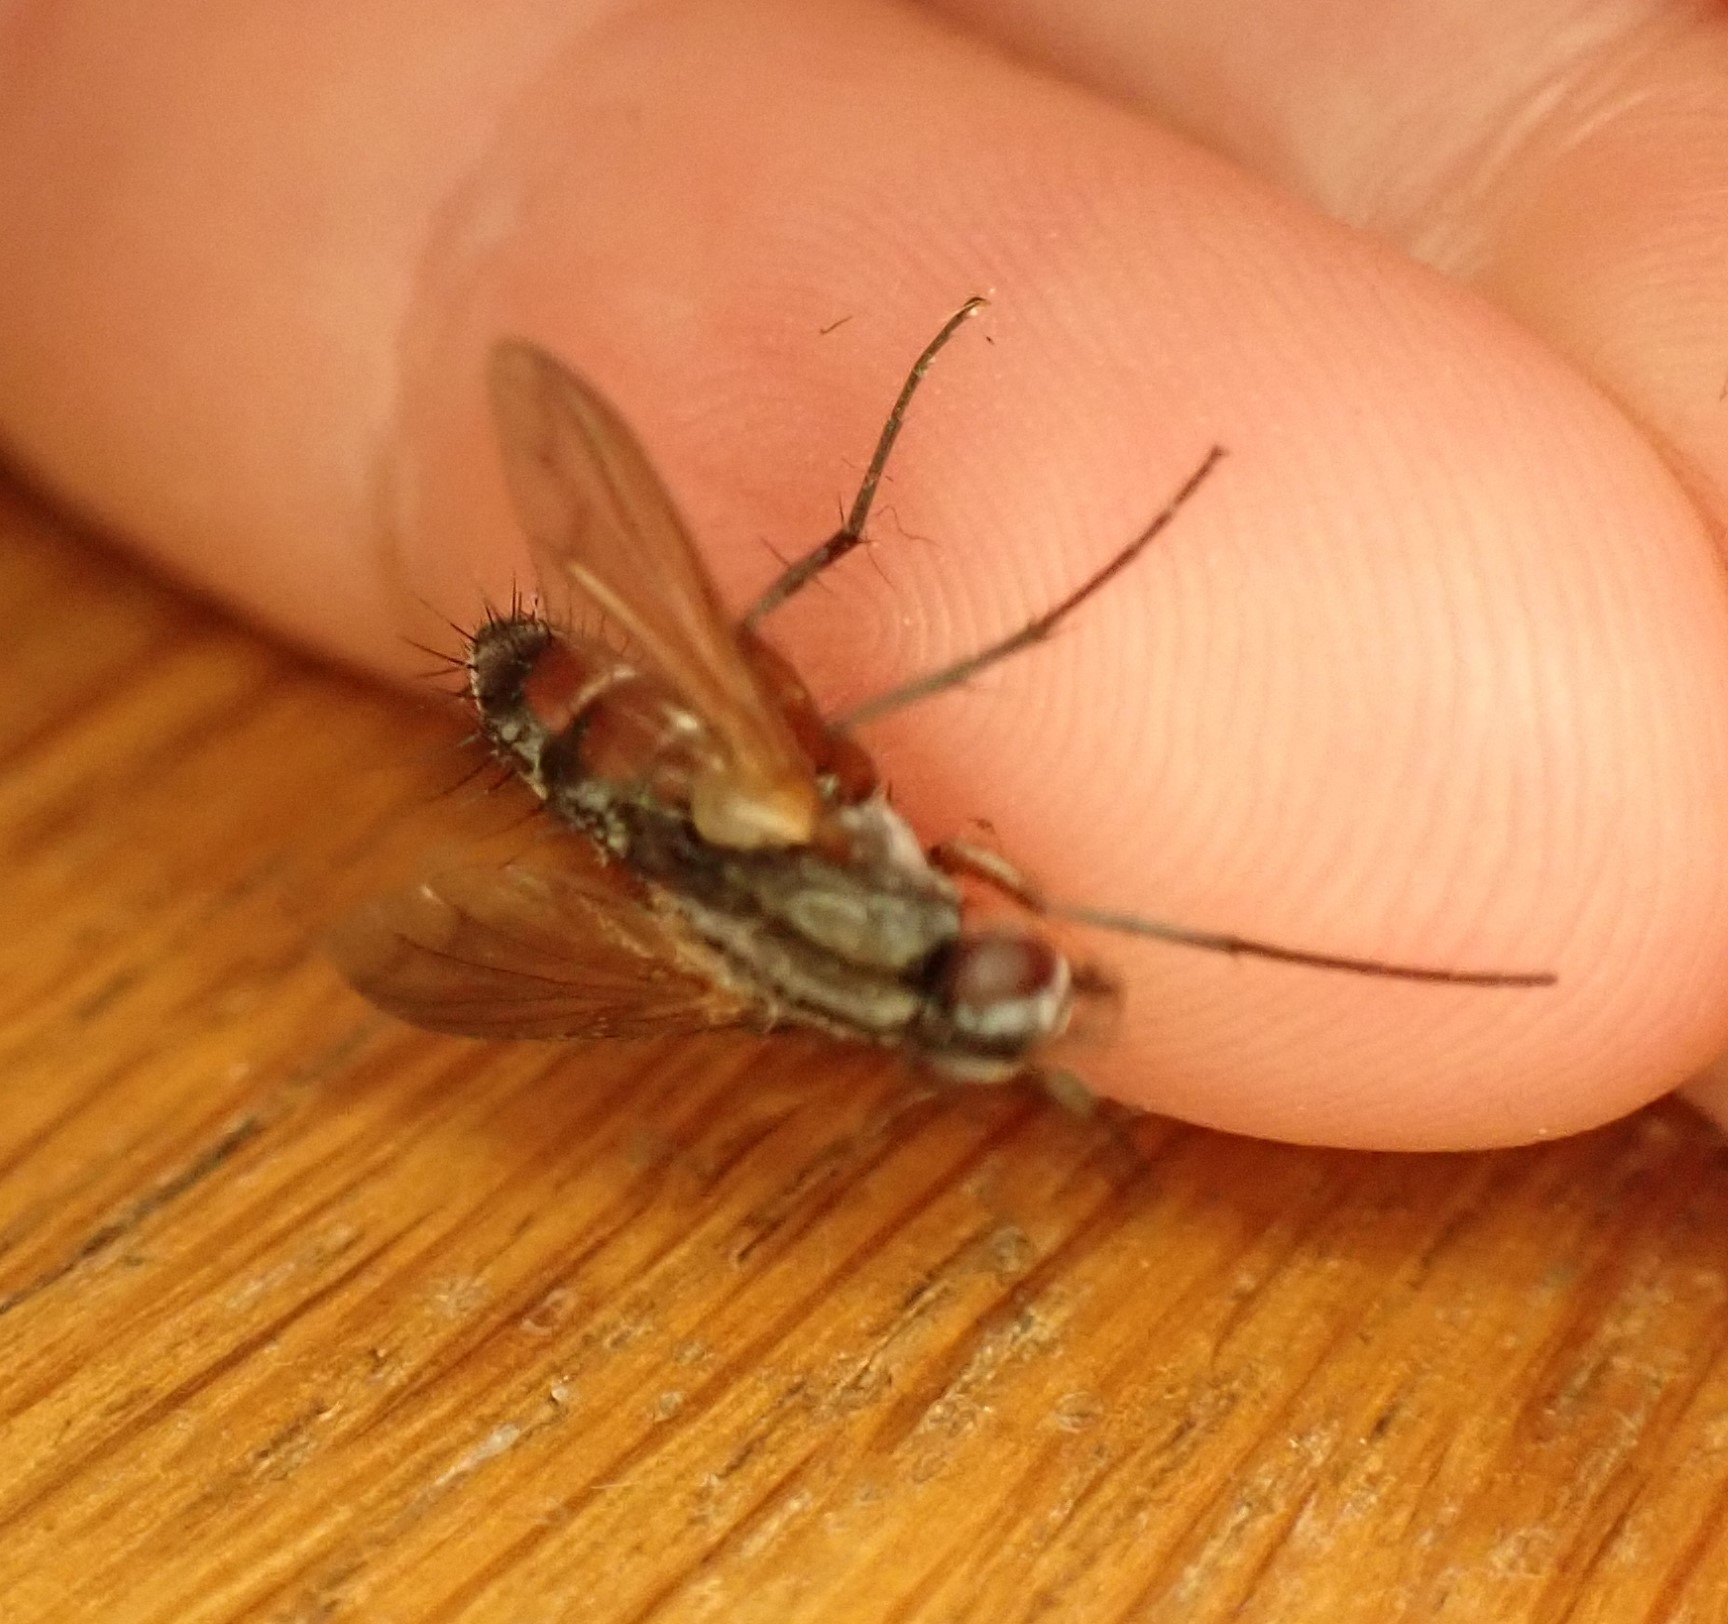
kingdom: Animalia
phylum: Arthropoda
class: Insecta
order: Diptera
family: Tachinidae
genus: Mintho
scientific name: Mintho rufiventris
